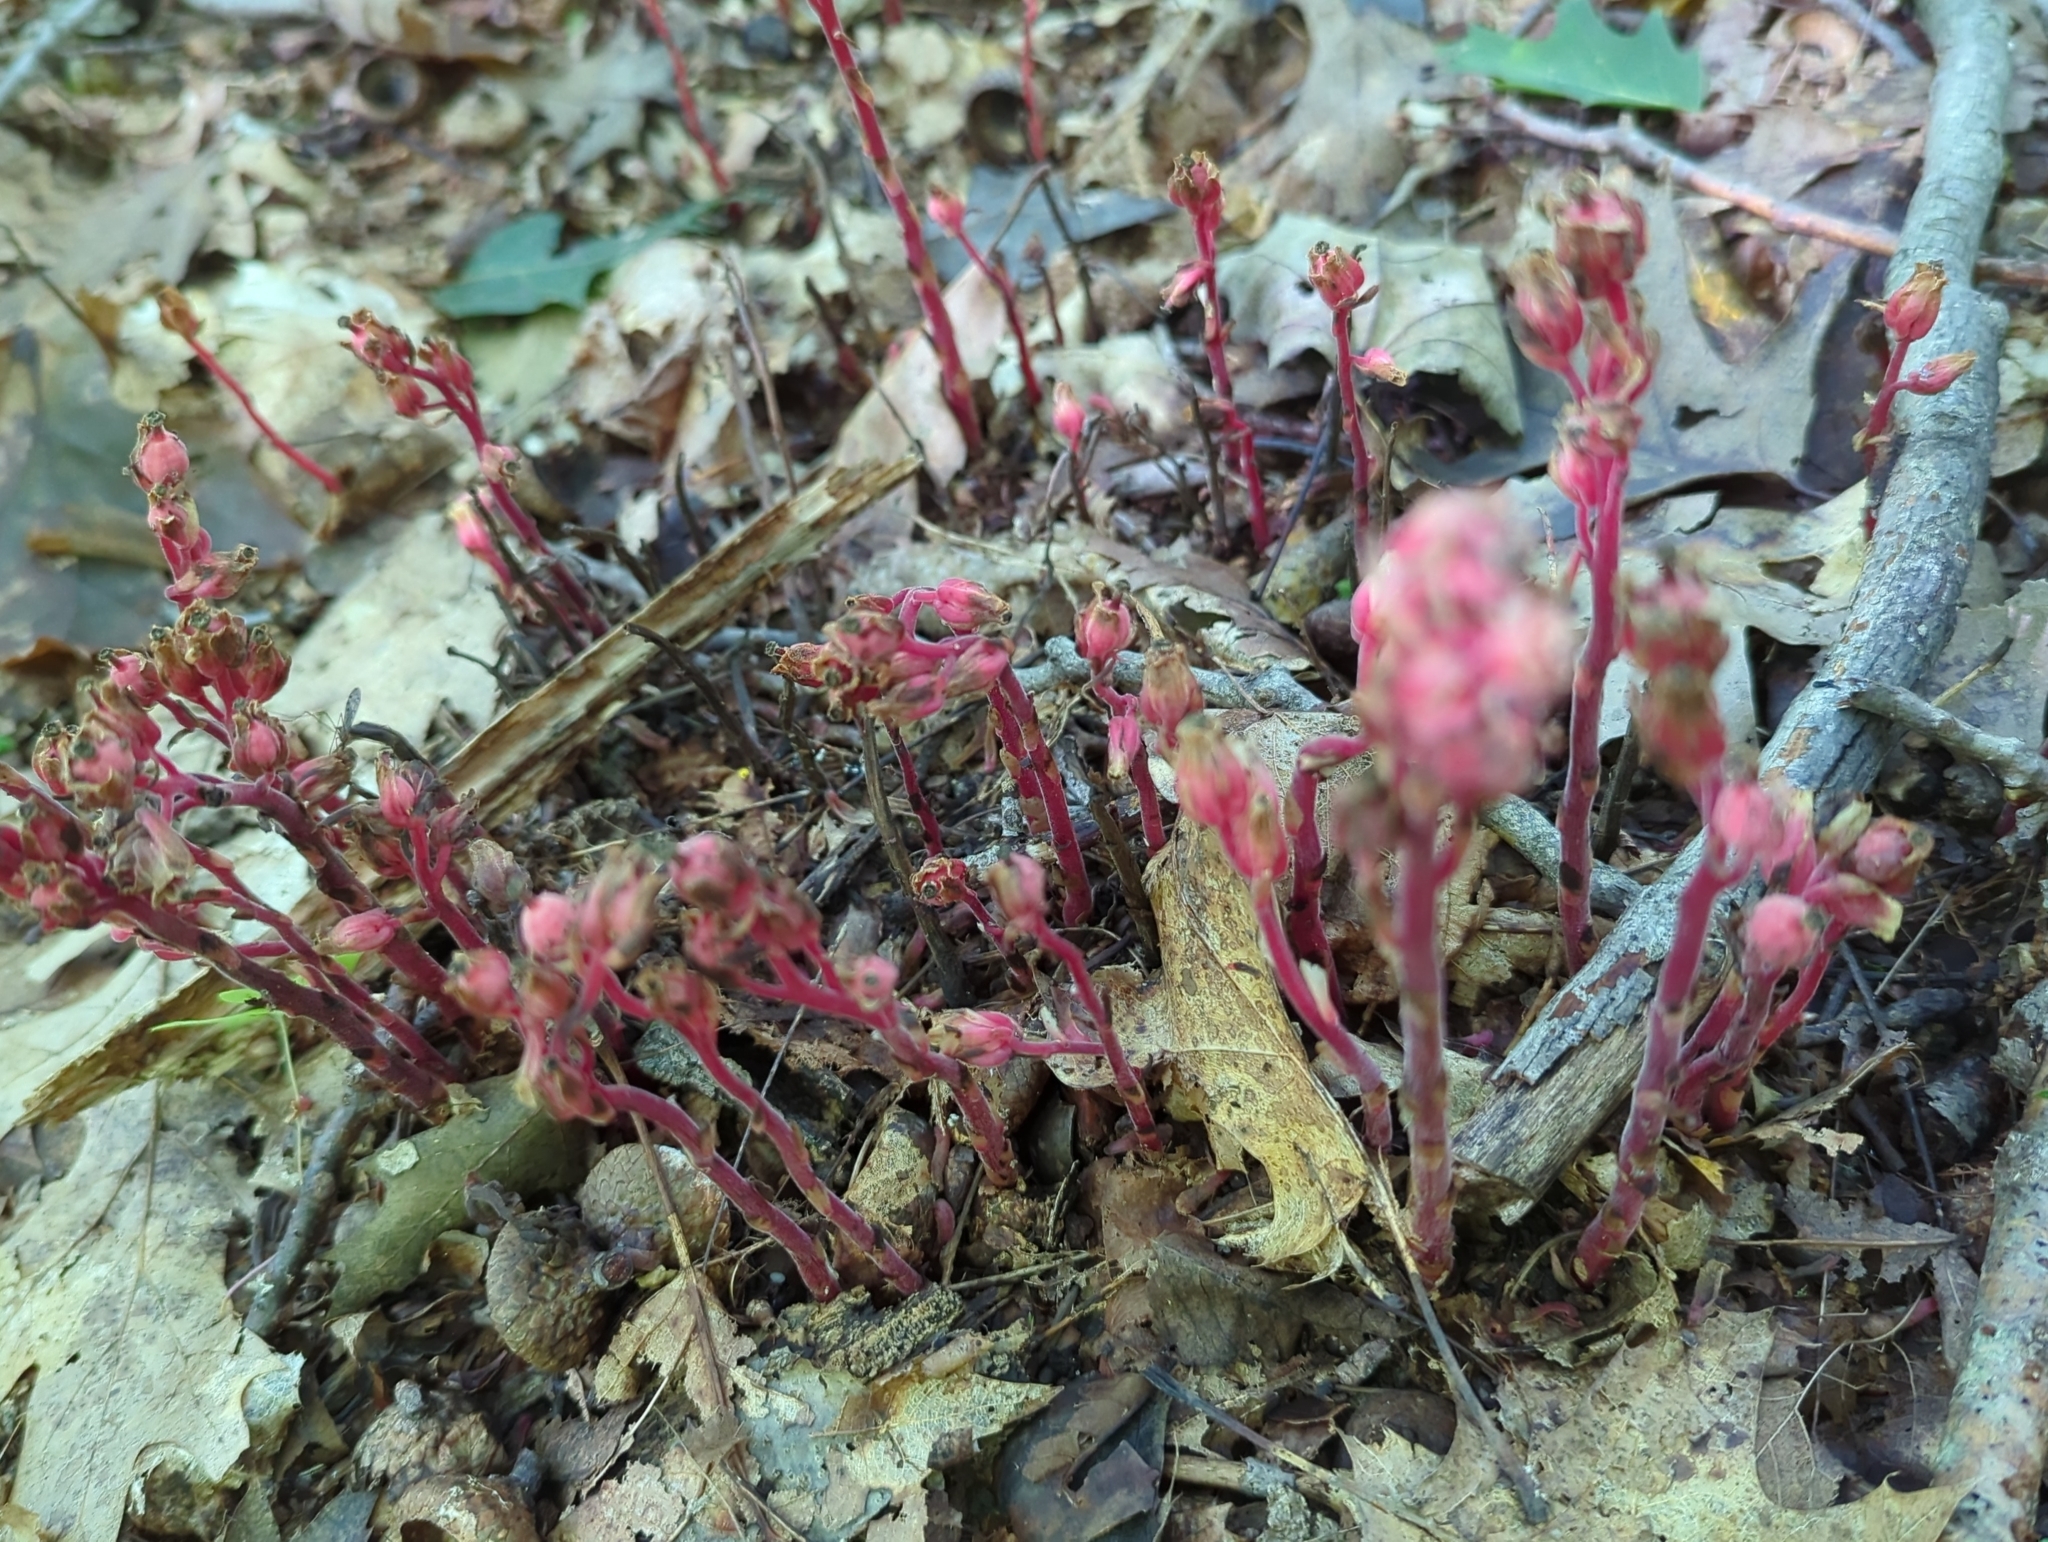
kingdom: Plantae
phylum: Tracheophyta
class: Magnoliopsida
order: Ericales
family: Ericaceae
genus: Hypopitys
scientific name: Hypopitys monotropa
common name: Yellow bird's-nest
